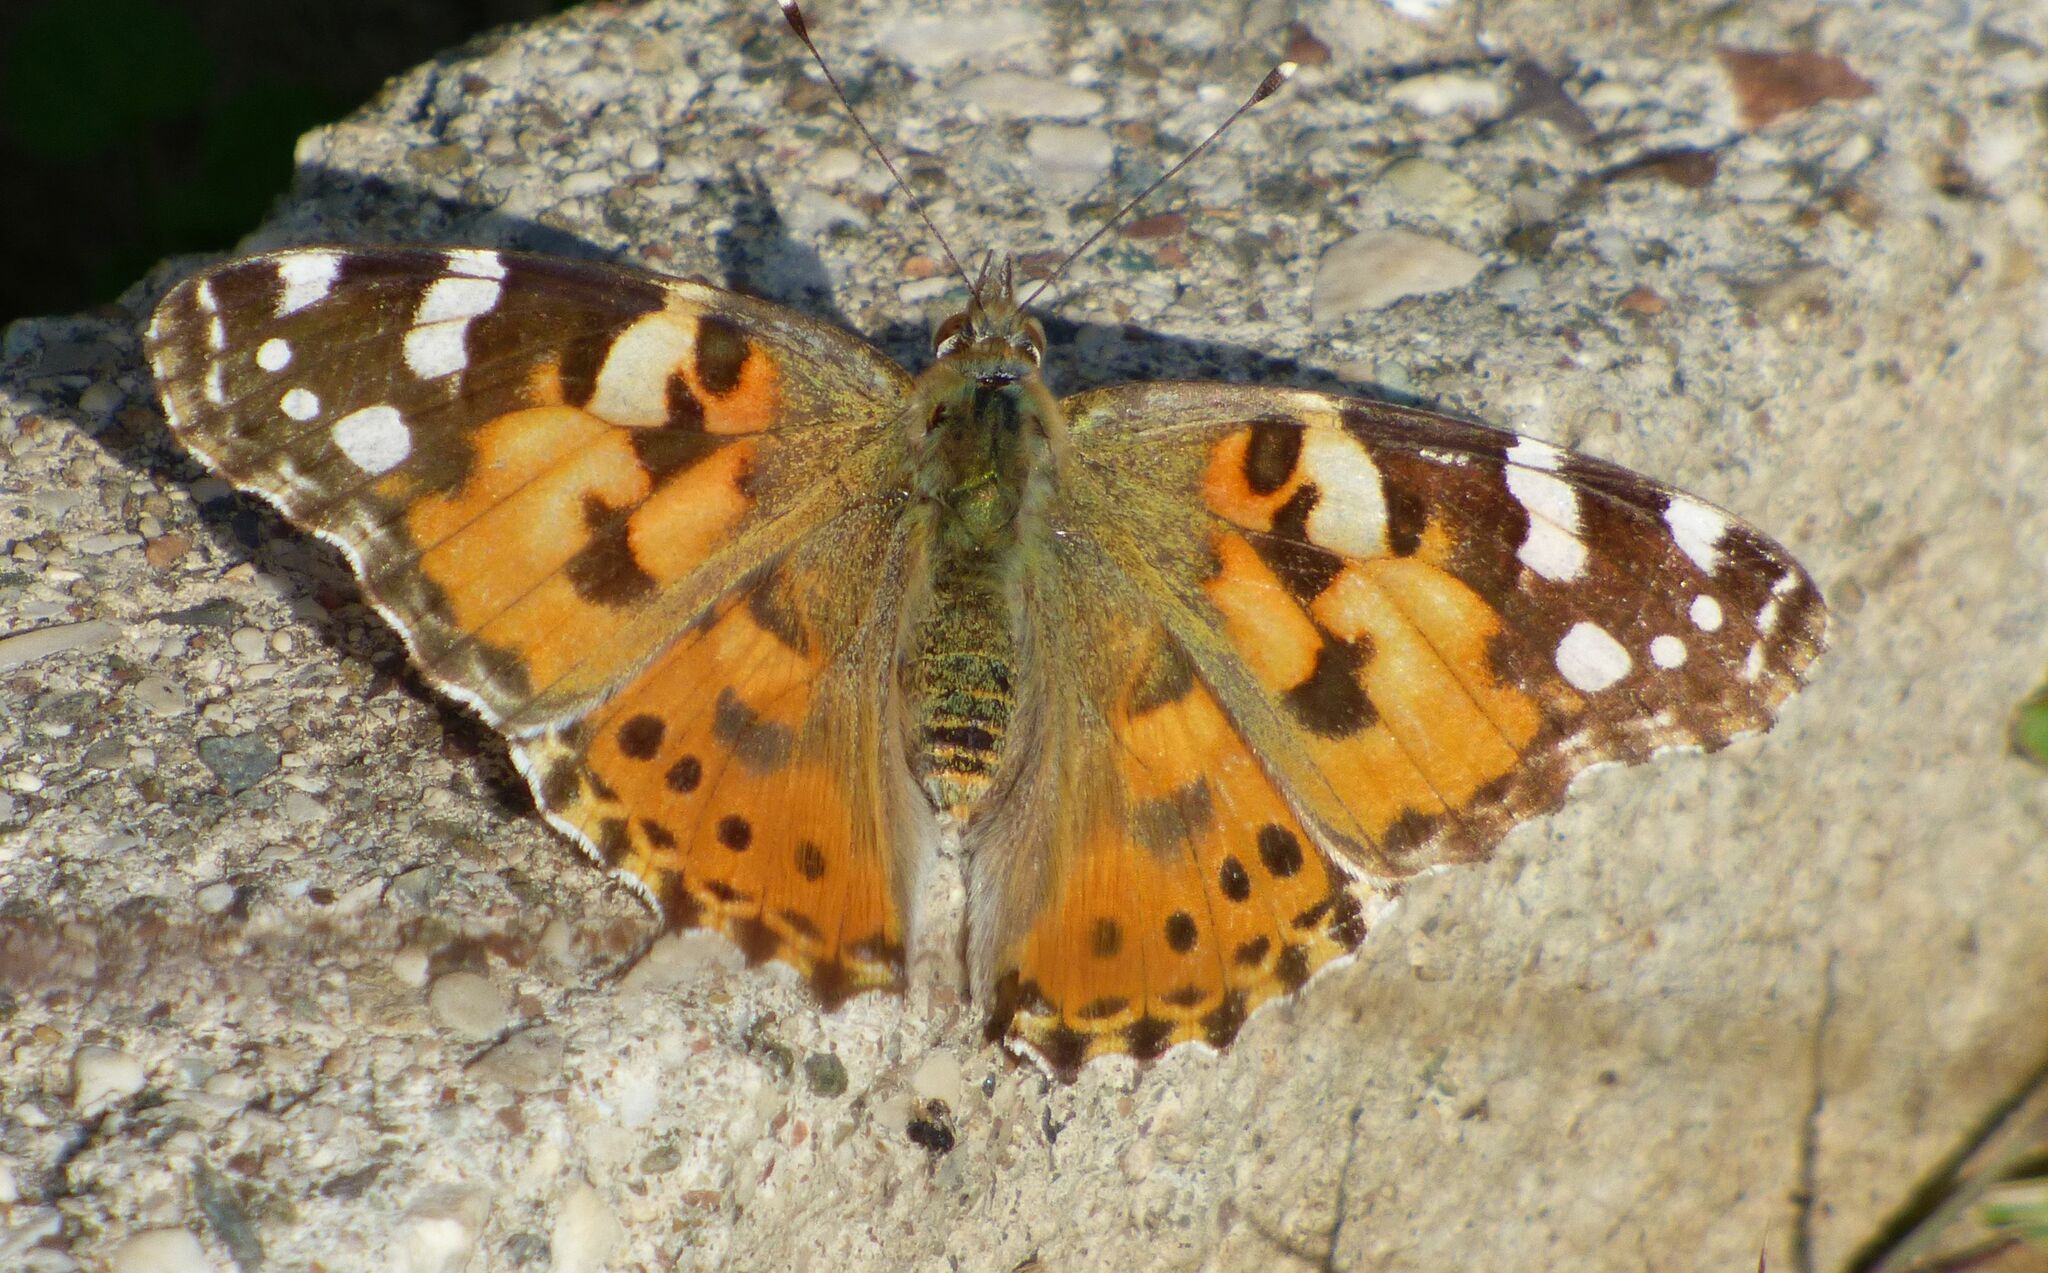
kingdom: Animalia
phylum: Arthropoda
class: Insecta
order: Lepidoptera
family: Nymphalidae
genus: Vanessa
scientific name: Vanessa cardui
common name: Painted lady
